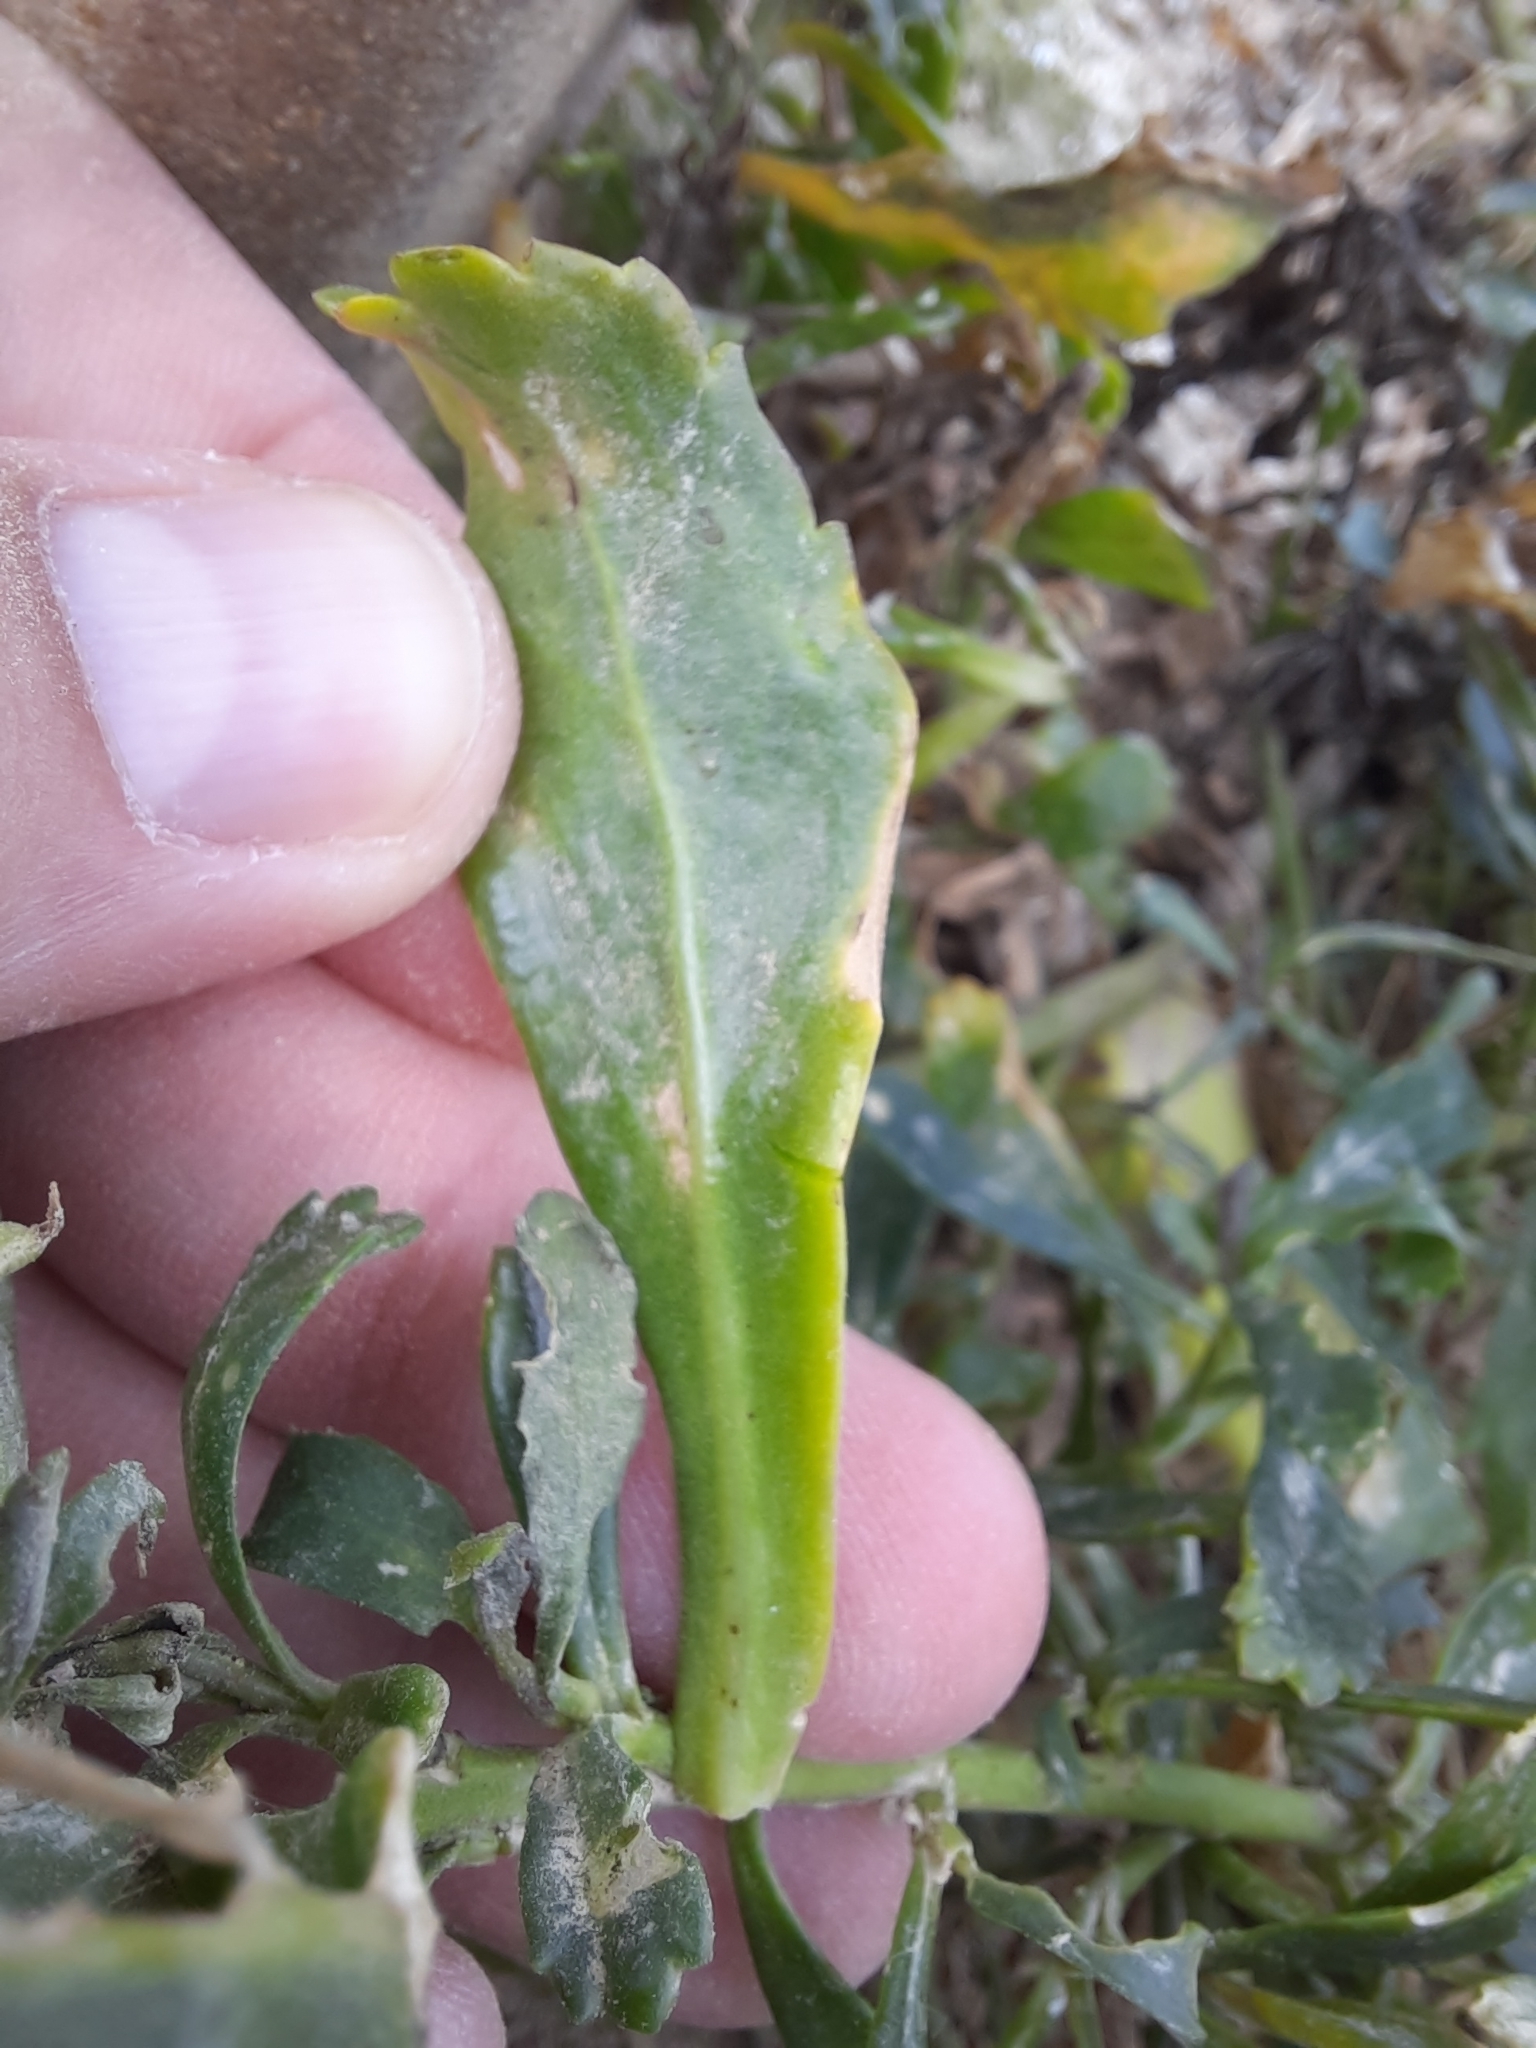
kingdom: Plantae
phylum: Tracheophyta
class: Magnoliopsida
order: Brassicales
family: Brassicaceae
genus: Lepidium
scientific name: Lepidium crassum
